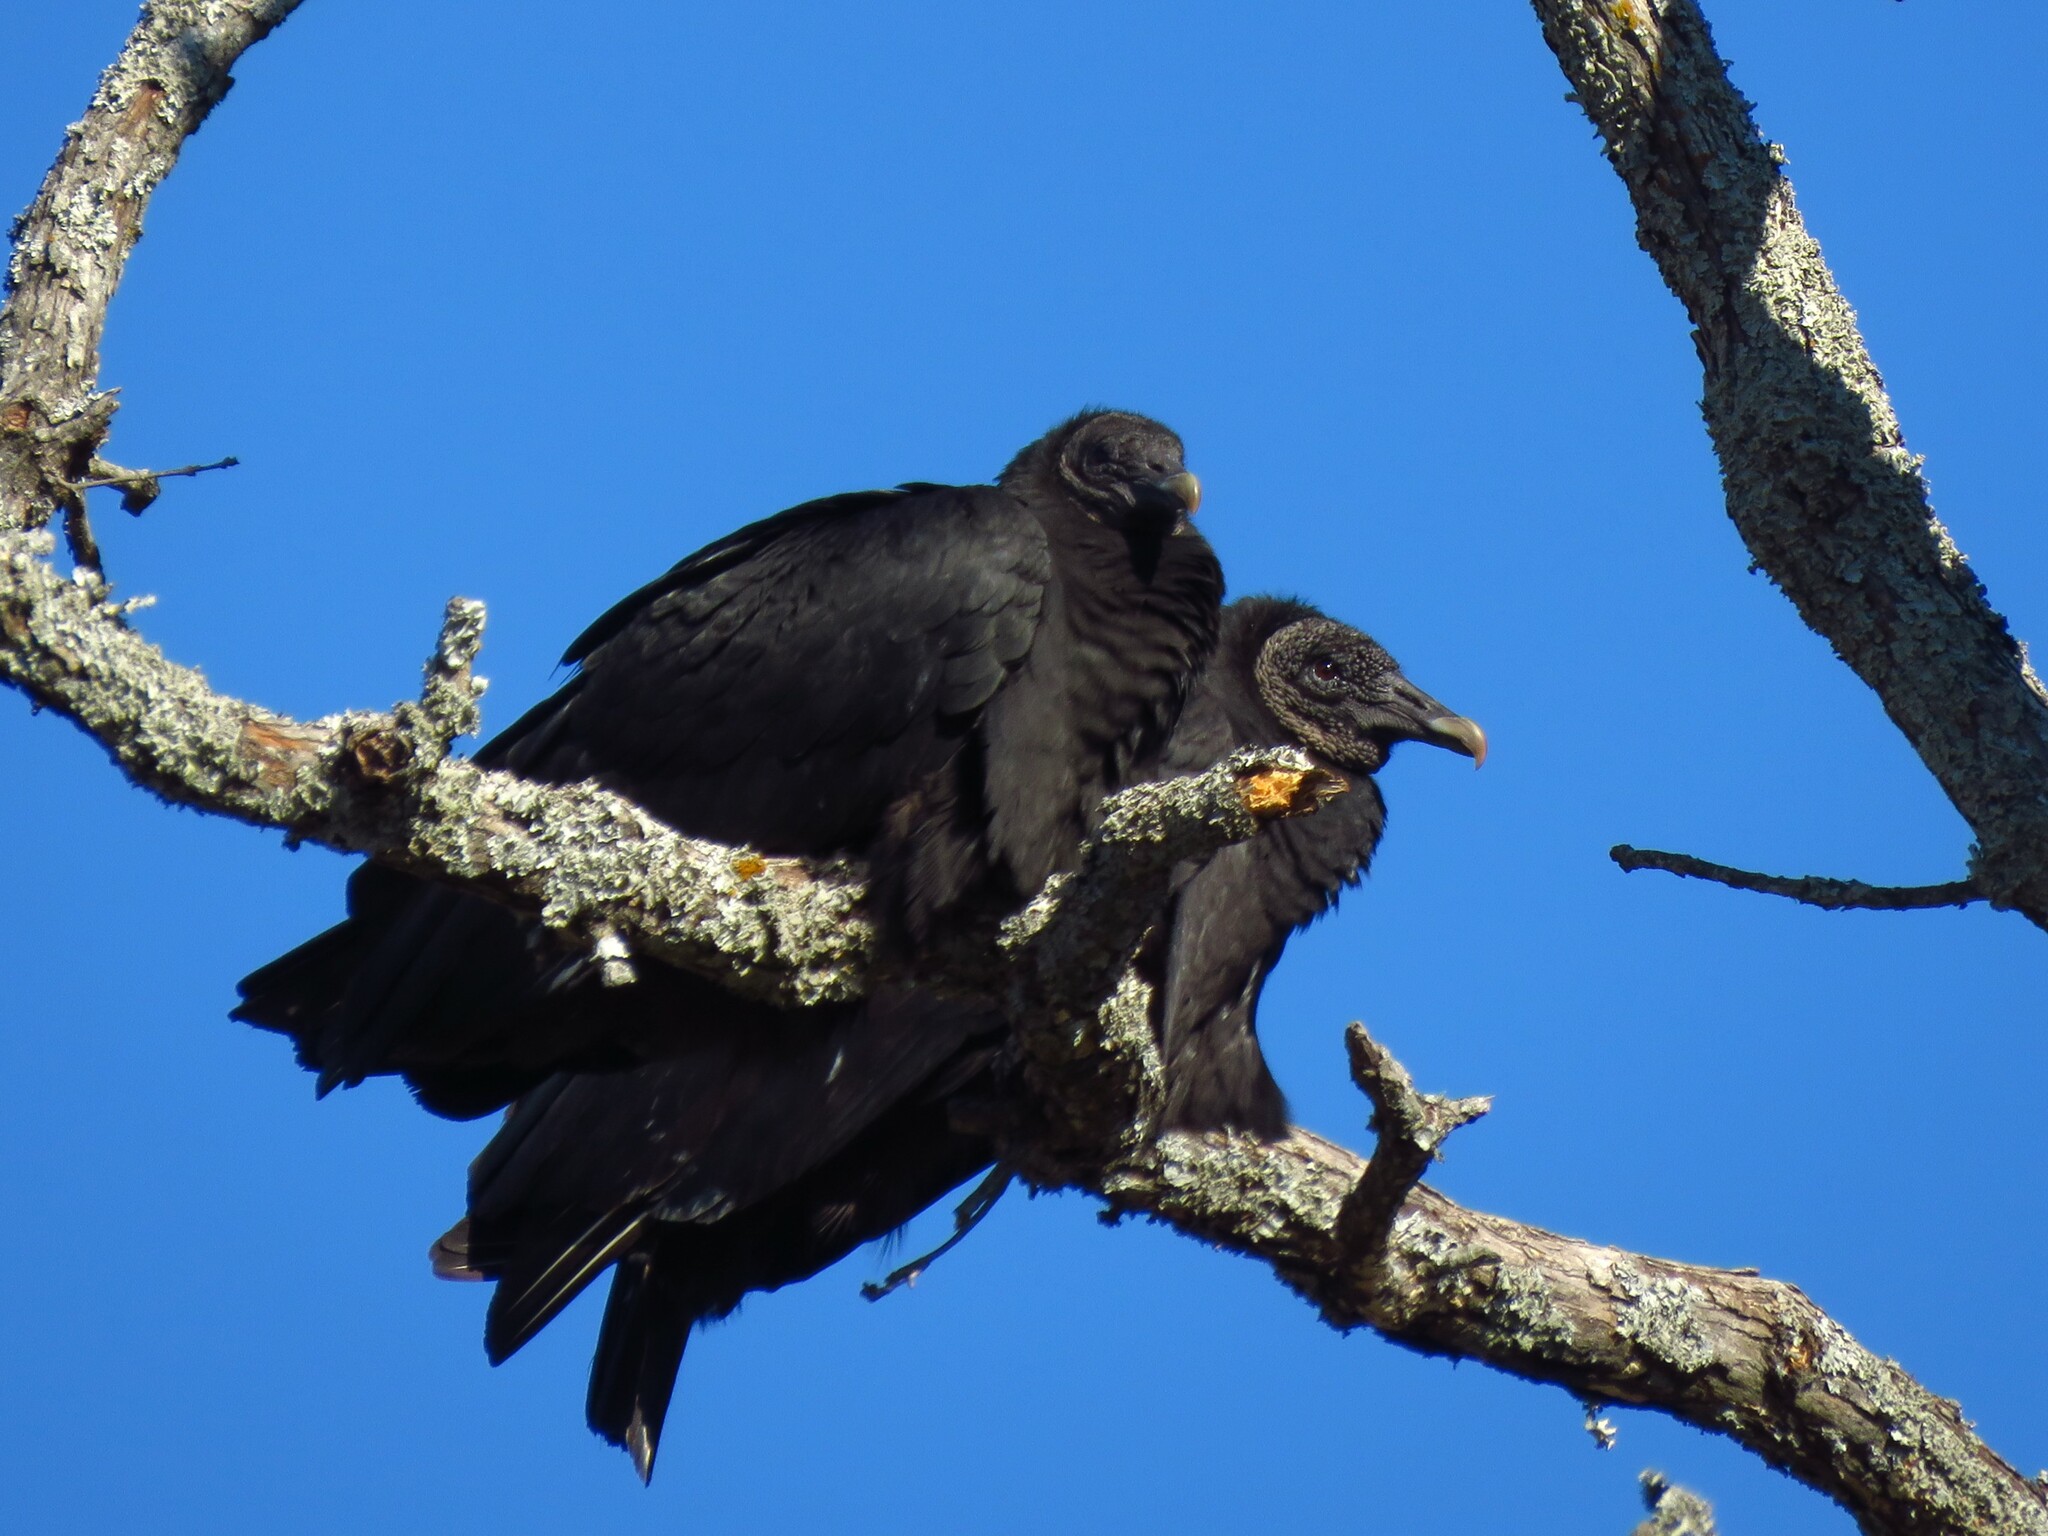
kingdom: Animalia
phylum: Chordata
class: Aves
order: Accipitriformes
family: Cathartidae
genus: Coragyps
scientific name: Coragyps atratus
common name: Black vulture
